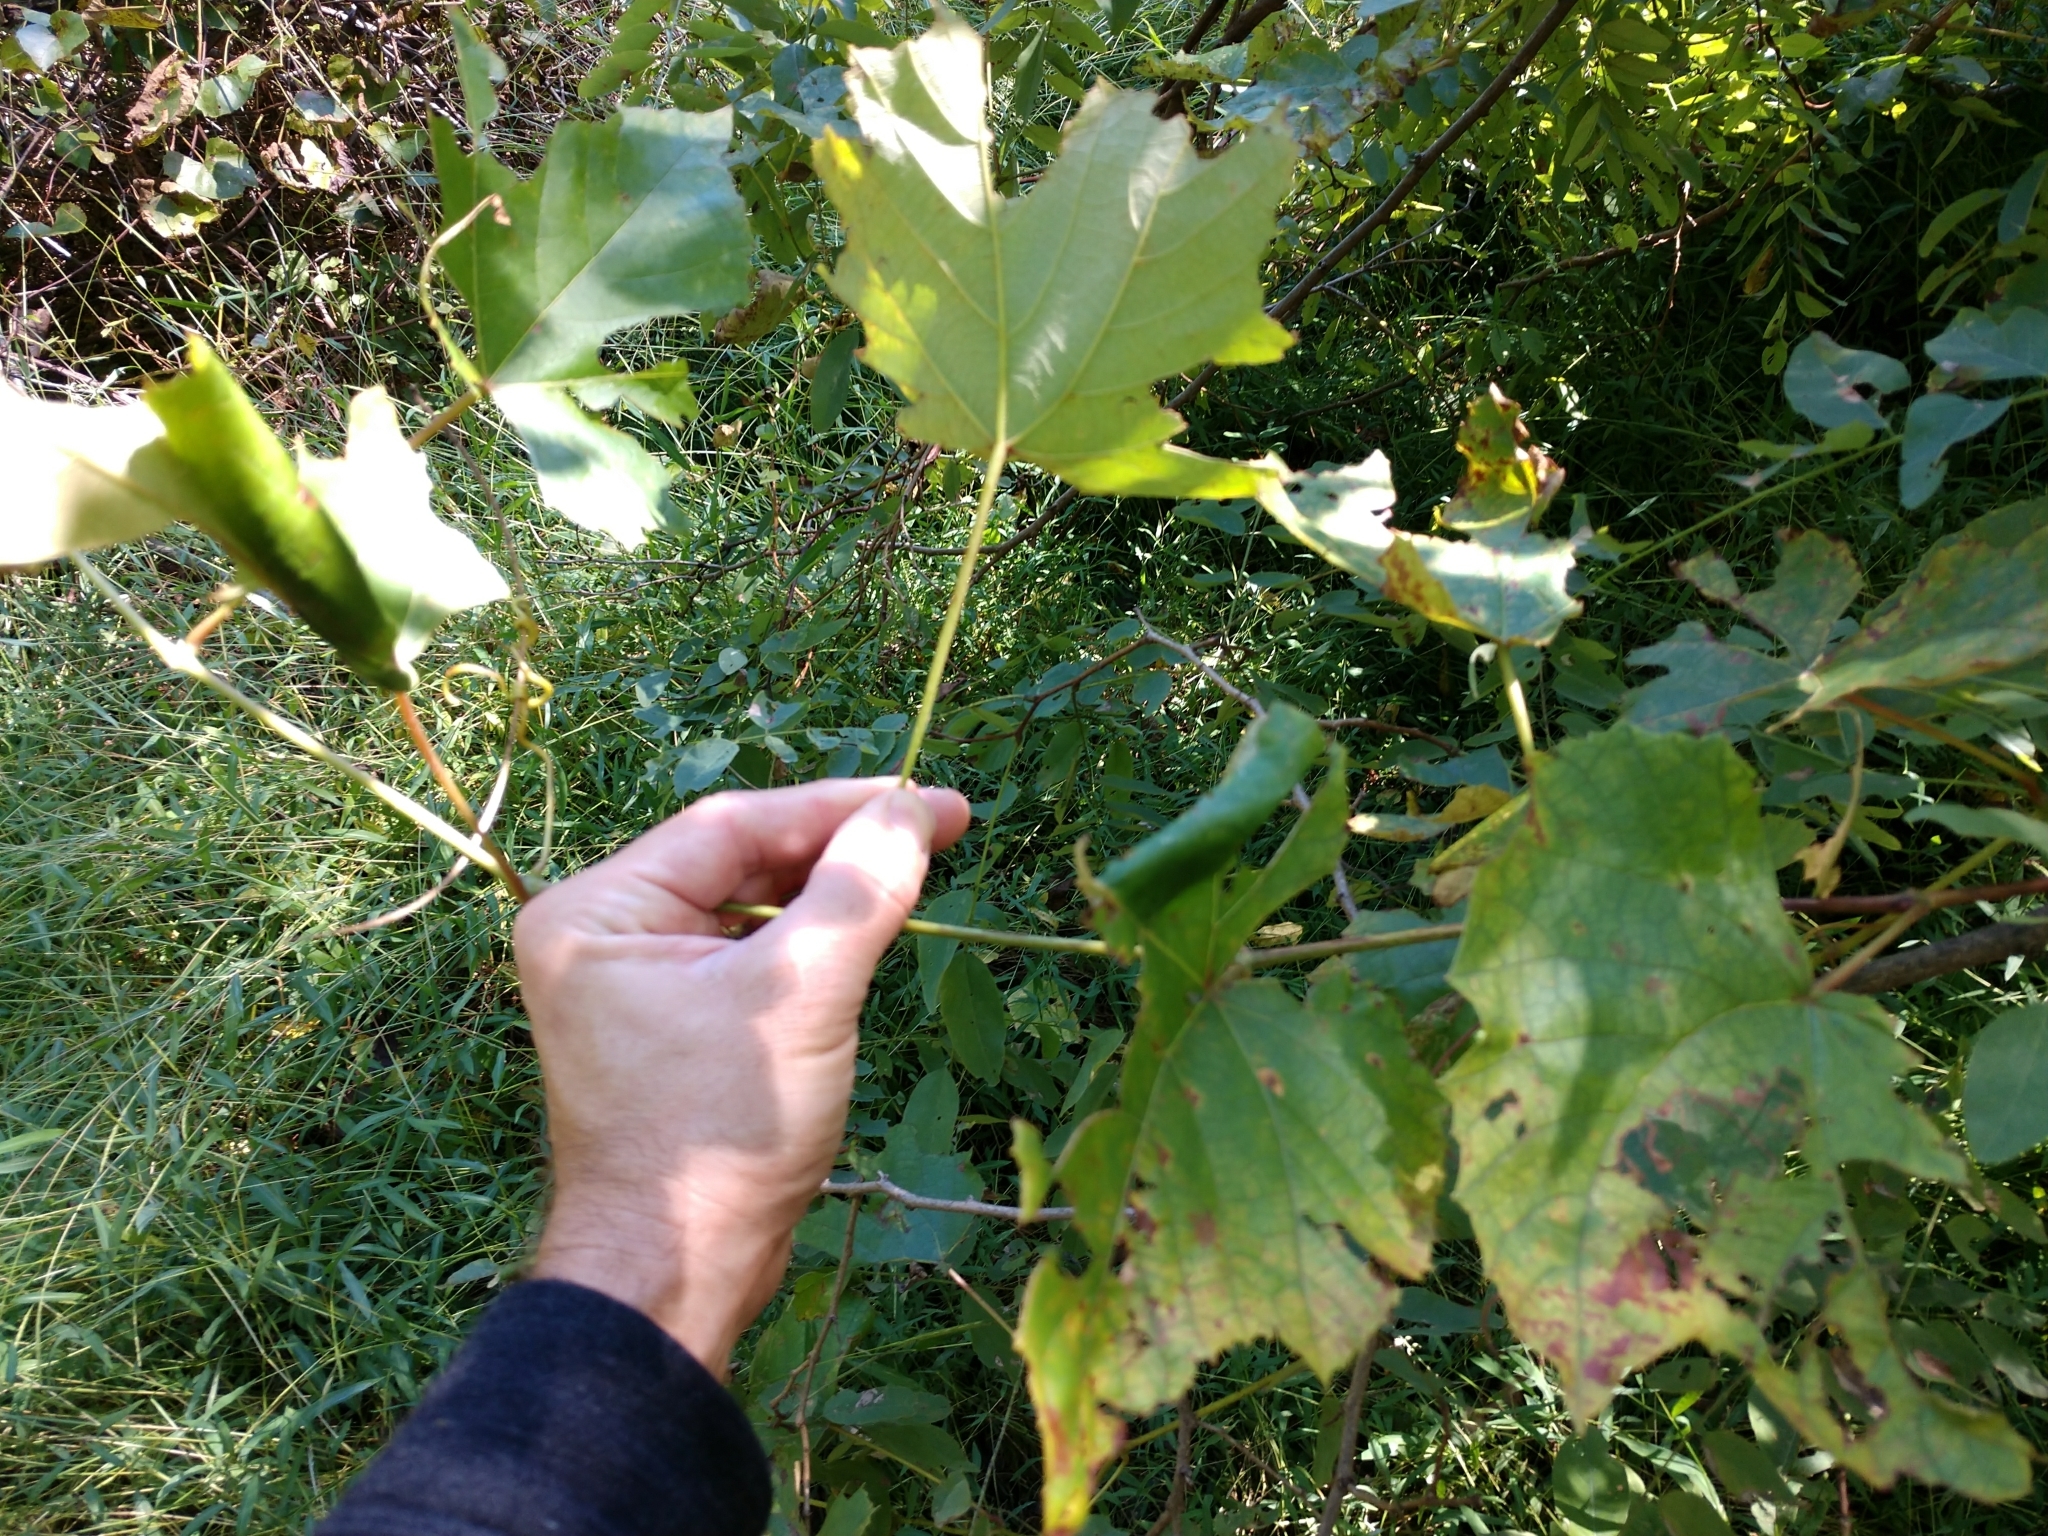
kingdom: Plantae
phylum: Tracheophyta
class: Magnoliopsida
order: Vitales
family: Vitaceae
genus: Vitis
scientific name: Vitis
